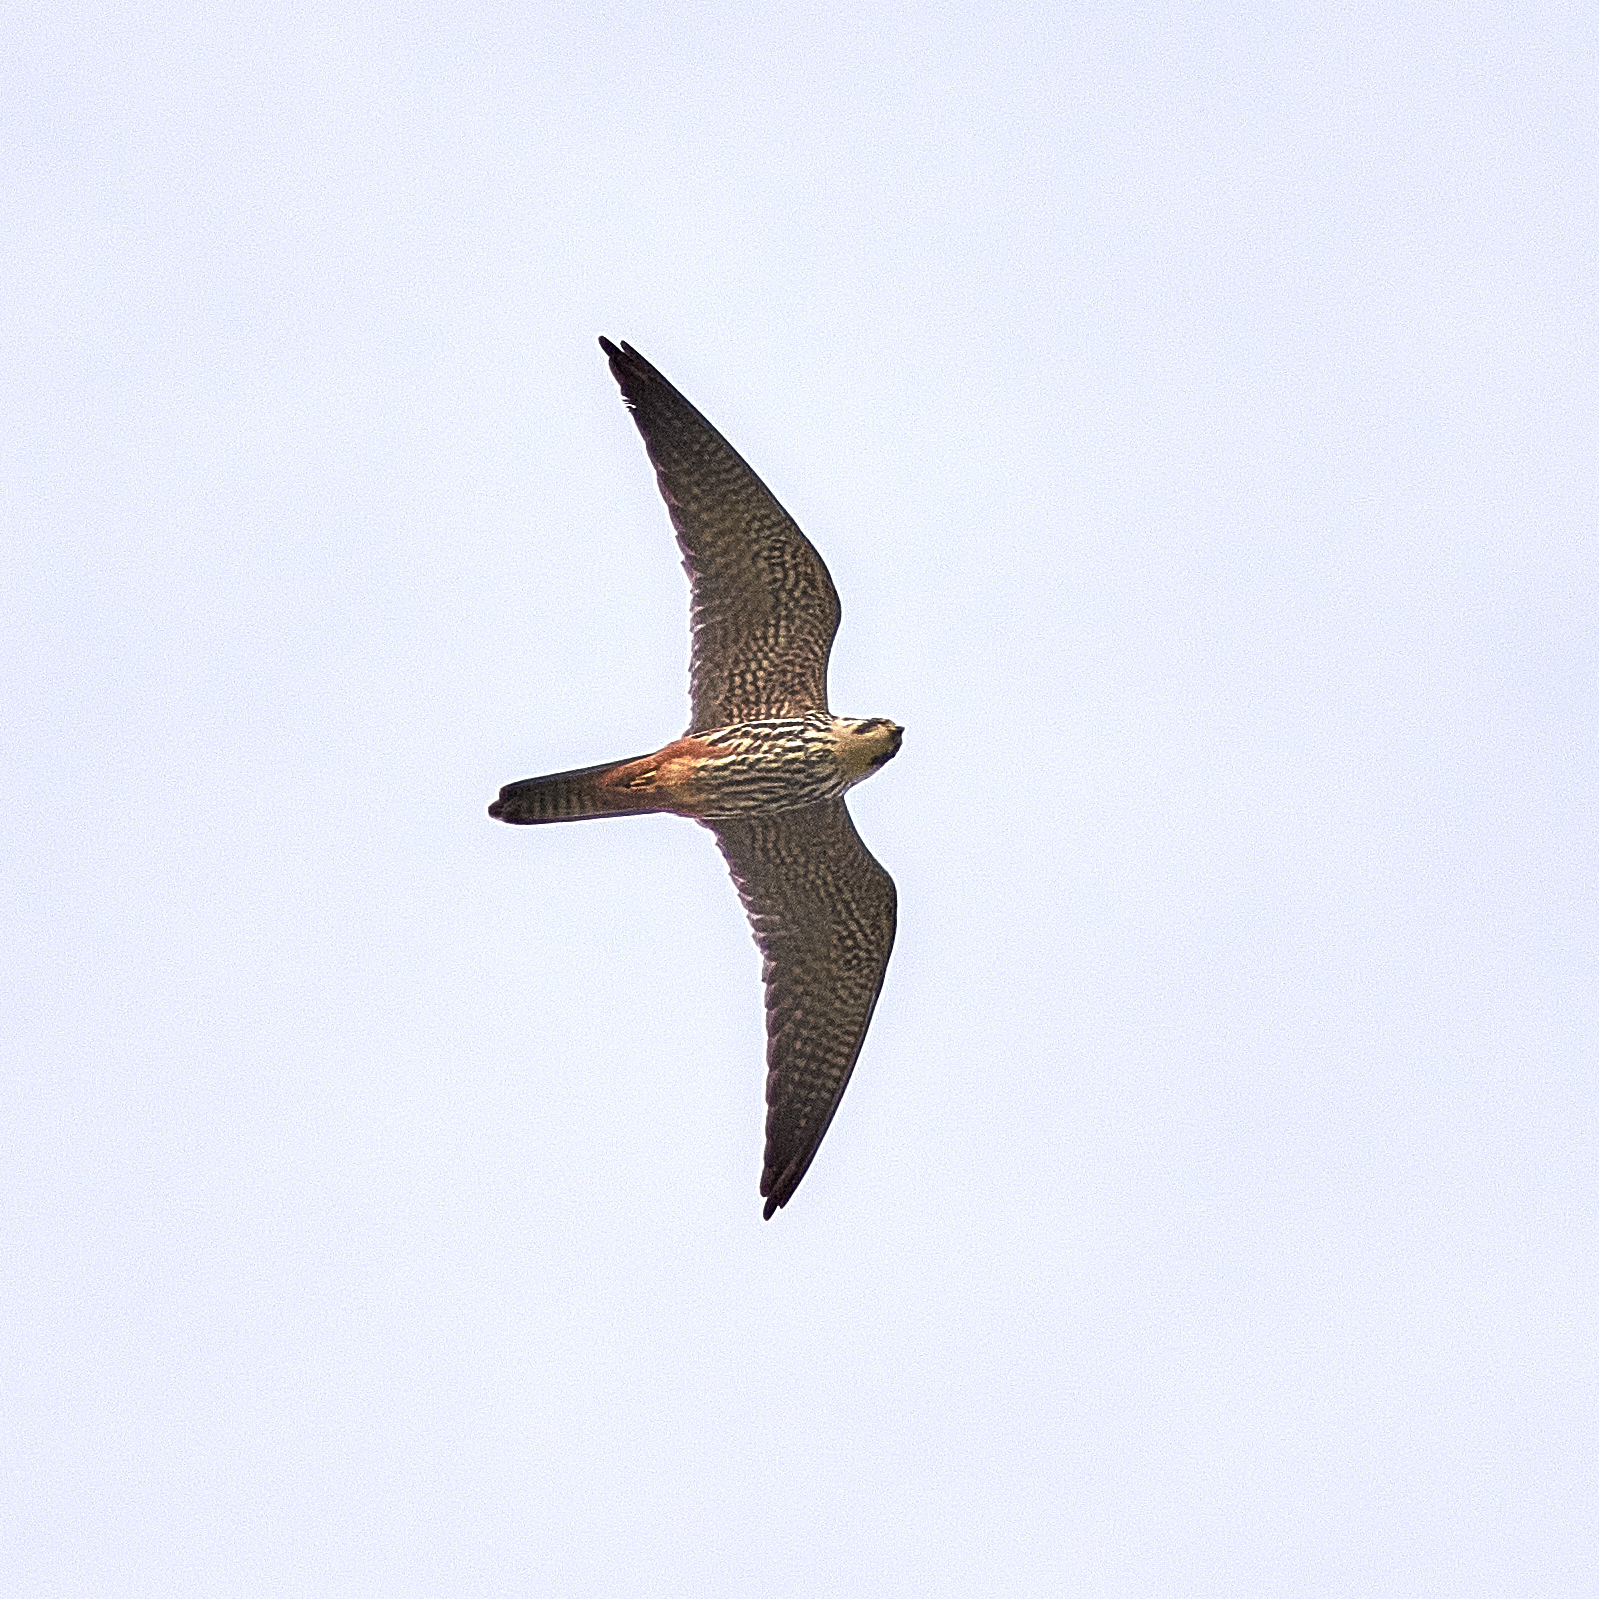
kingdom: Animalia
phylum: Chordata
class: Aves
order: Falconiformes
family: Falconidae
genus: Falco
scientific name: Falco subbuteo
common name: Eurasian hobby
